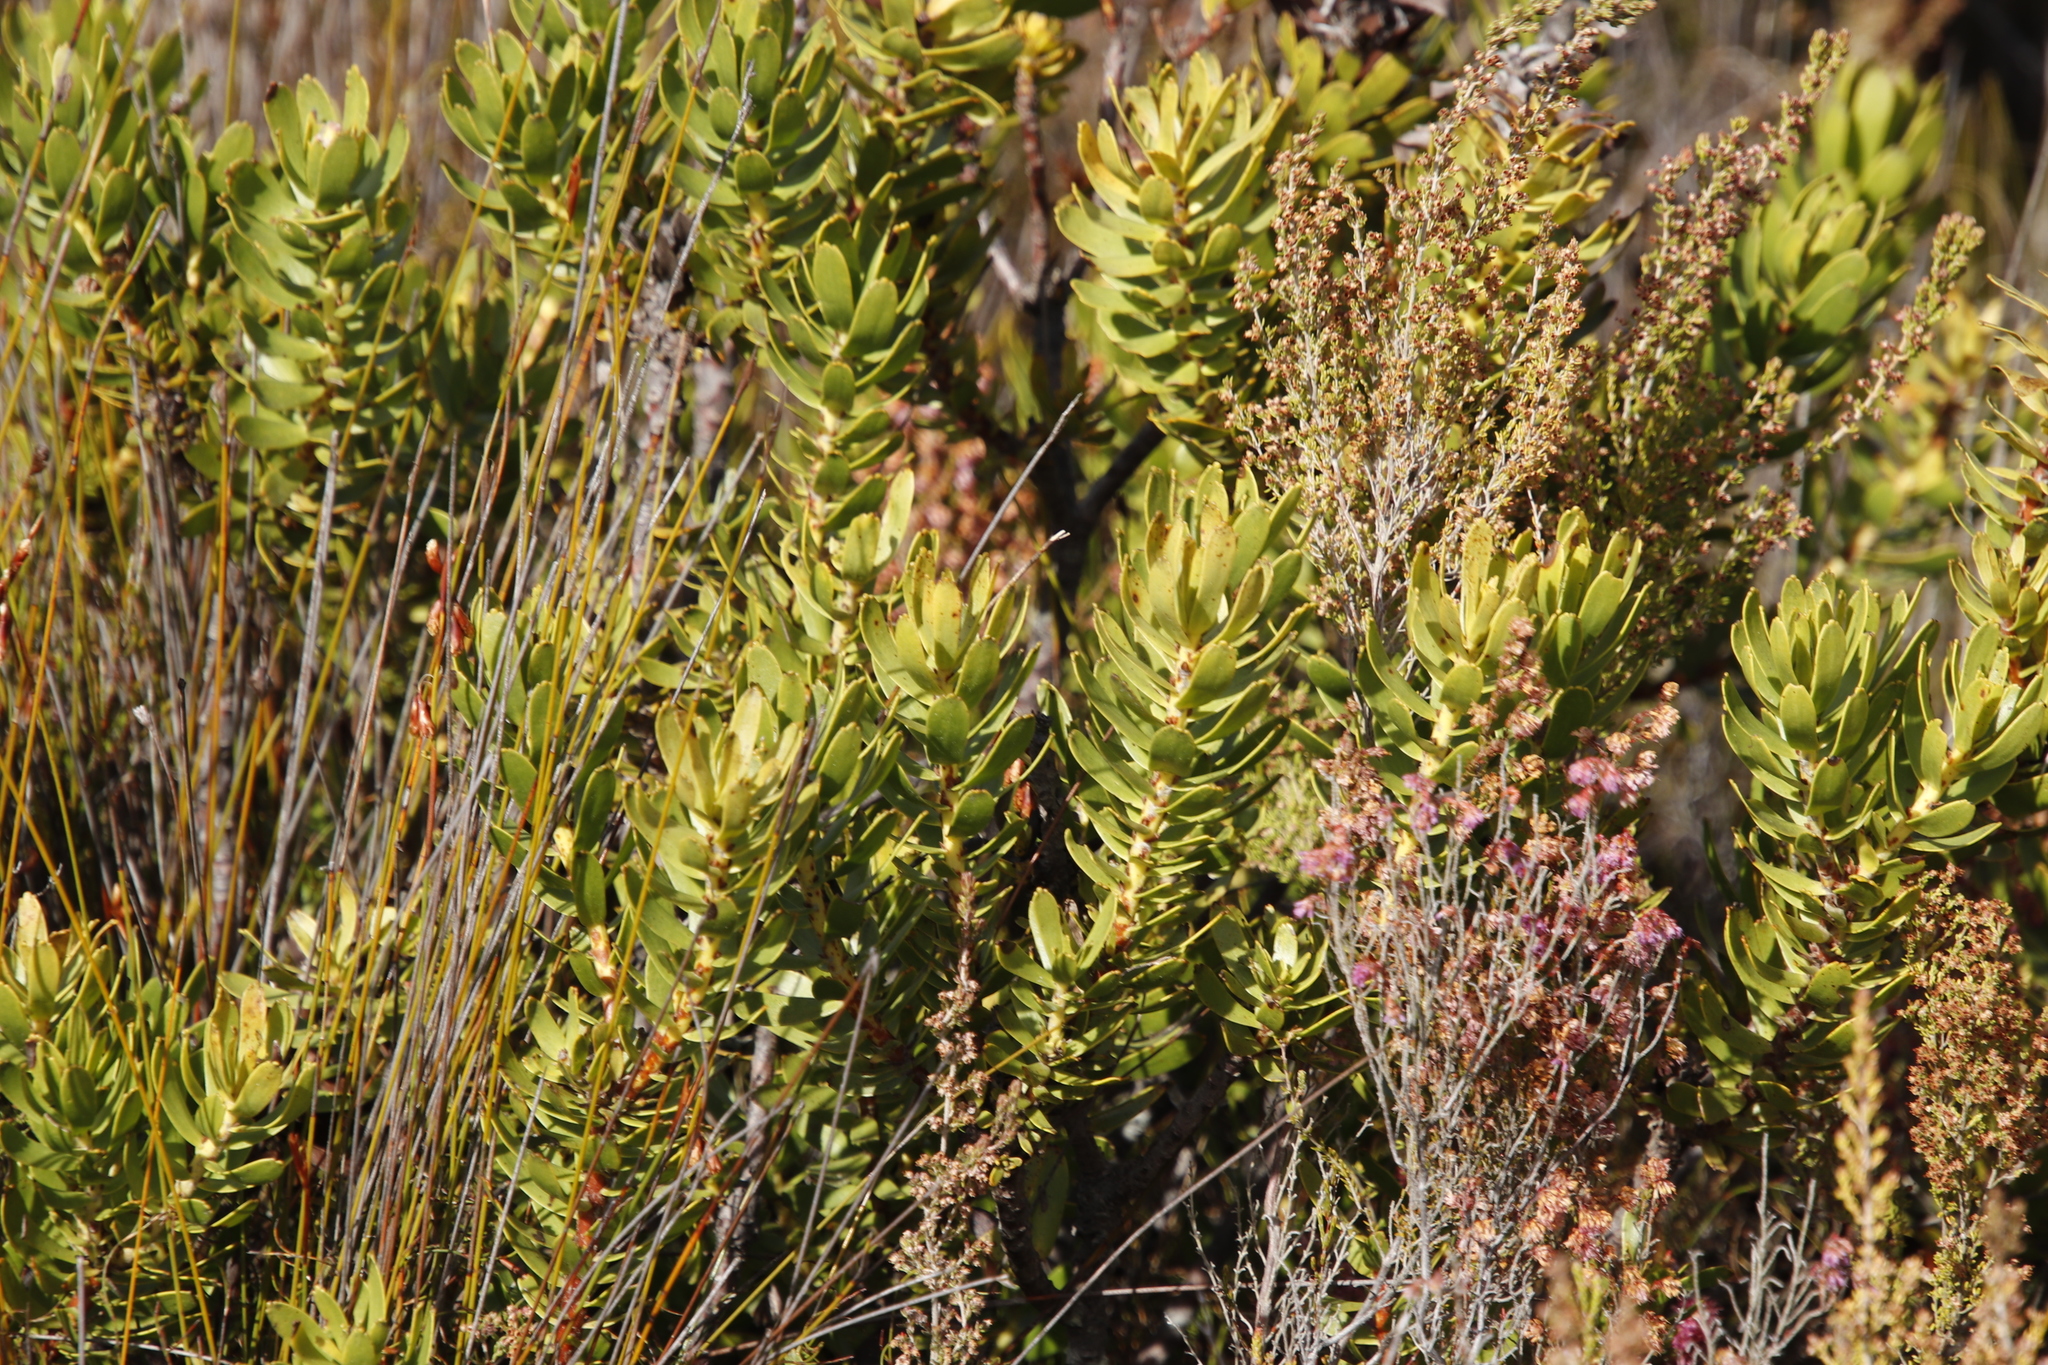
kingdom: Plantae
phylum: Tracheophyta
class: Magnoliopsida
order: Proteales
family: Proteaceae
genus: Mimetes
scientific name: Mimetes cucullatus
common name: Common pagoda
